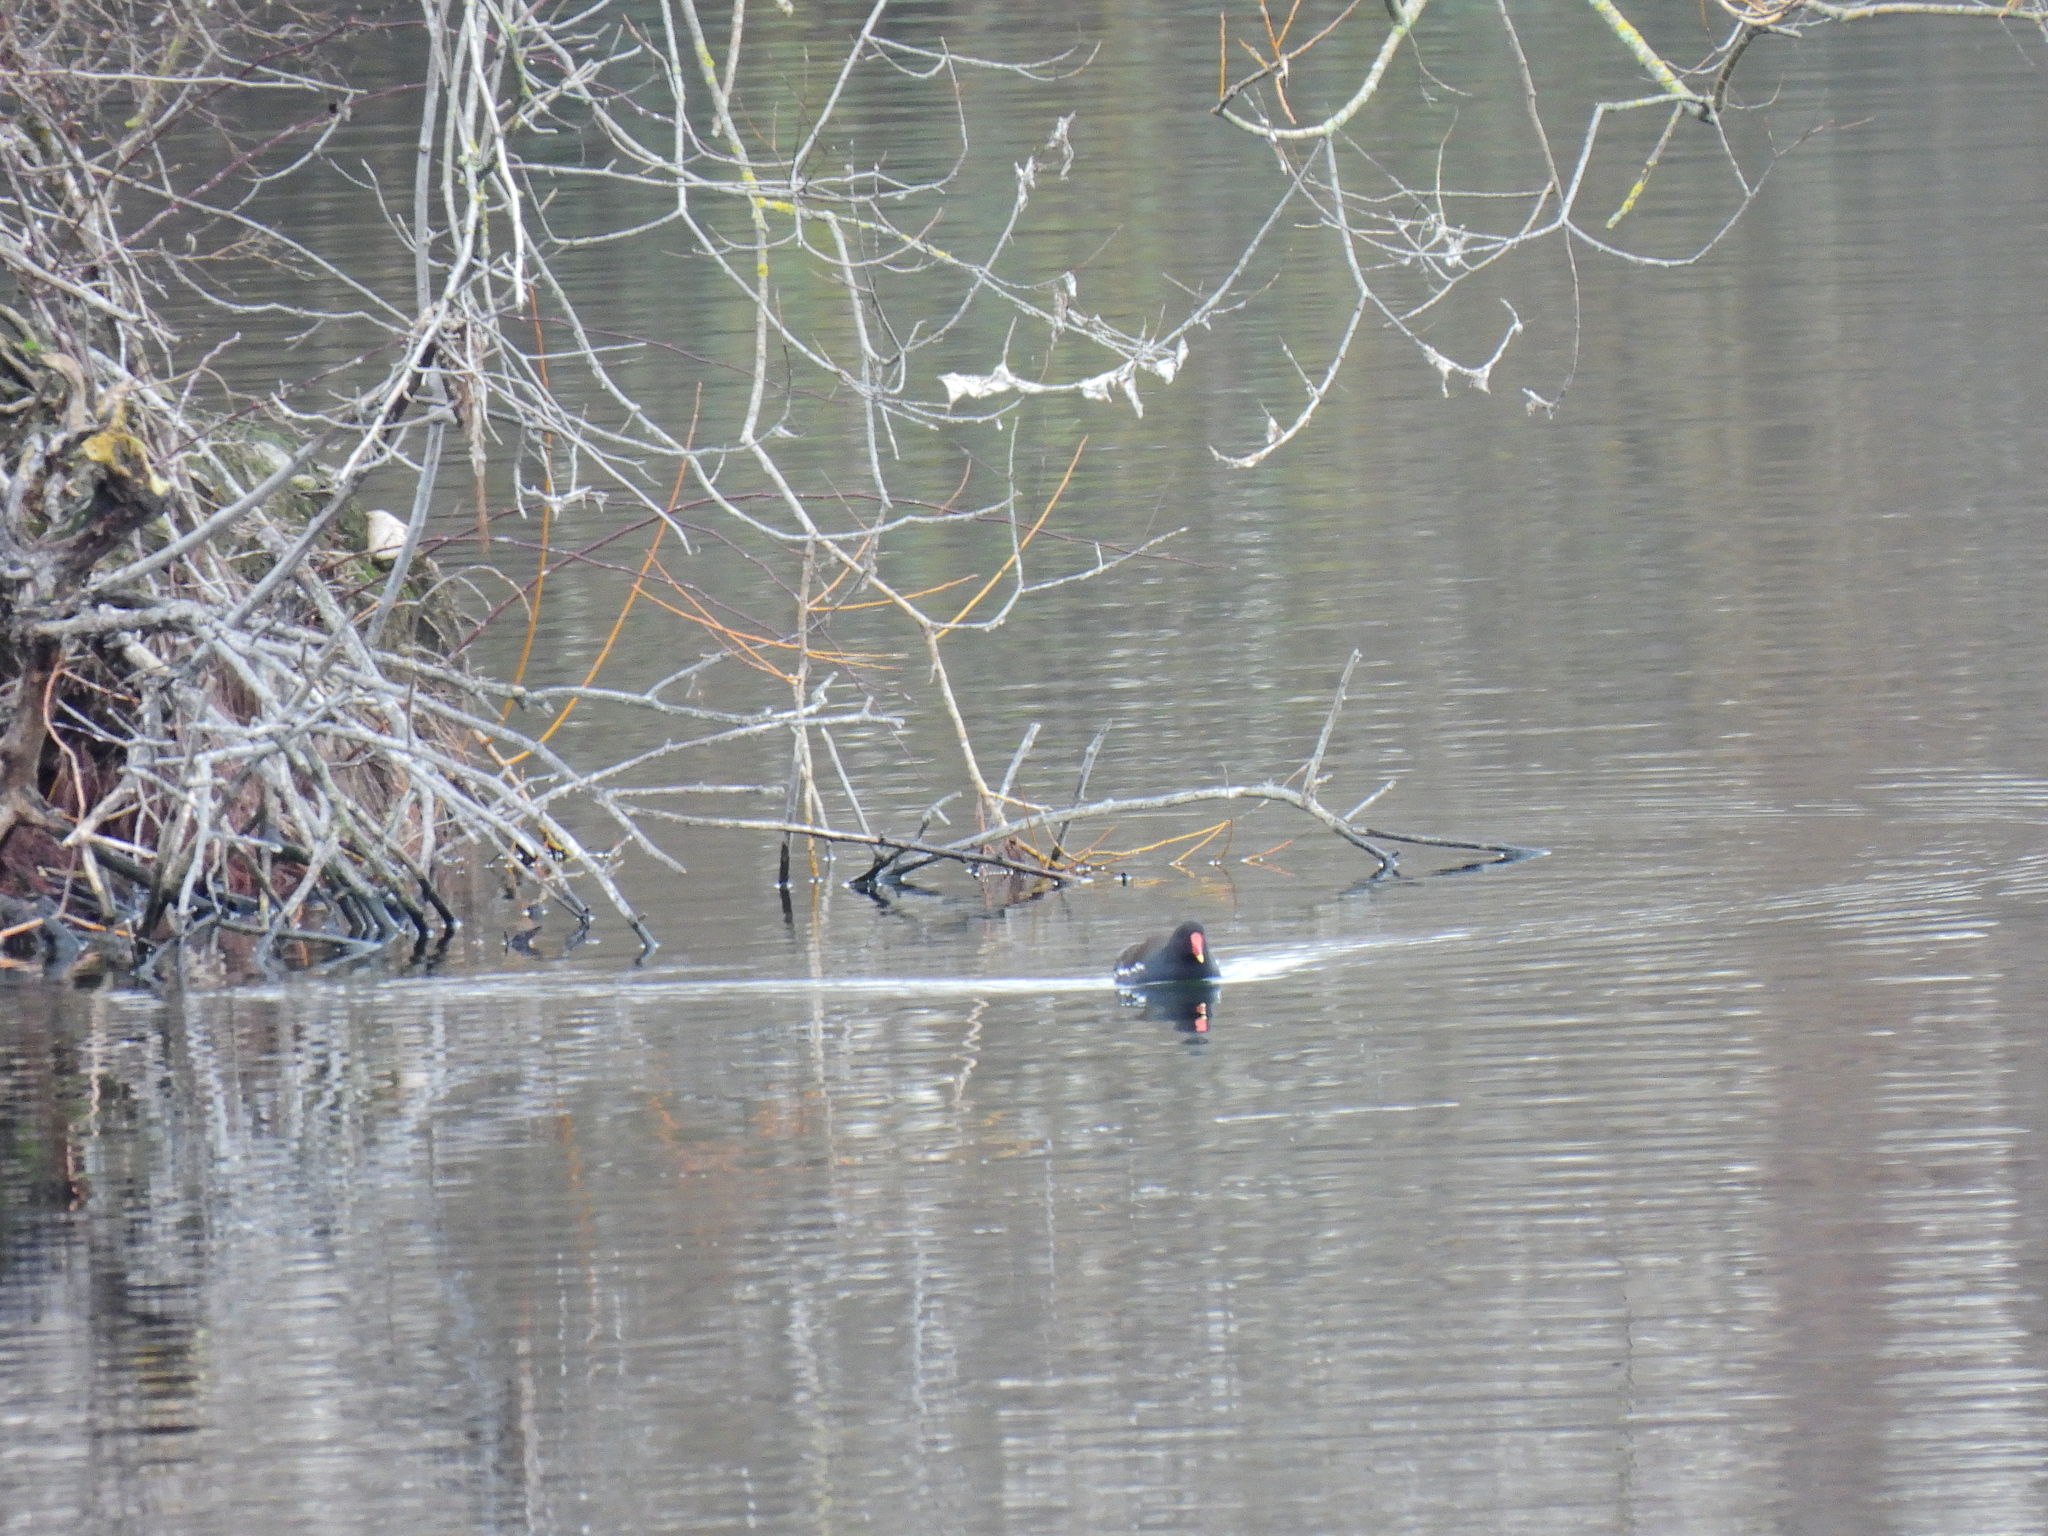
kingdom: Animalia
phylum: Chordata
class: Aves
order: Gruiformes
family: Rallidae
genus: Gallinula
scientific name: Gallinula chloropus
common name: Common moorhen
